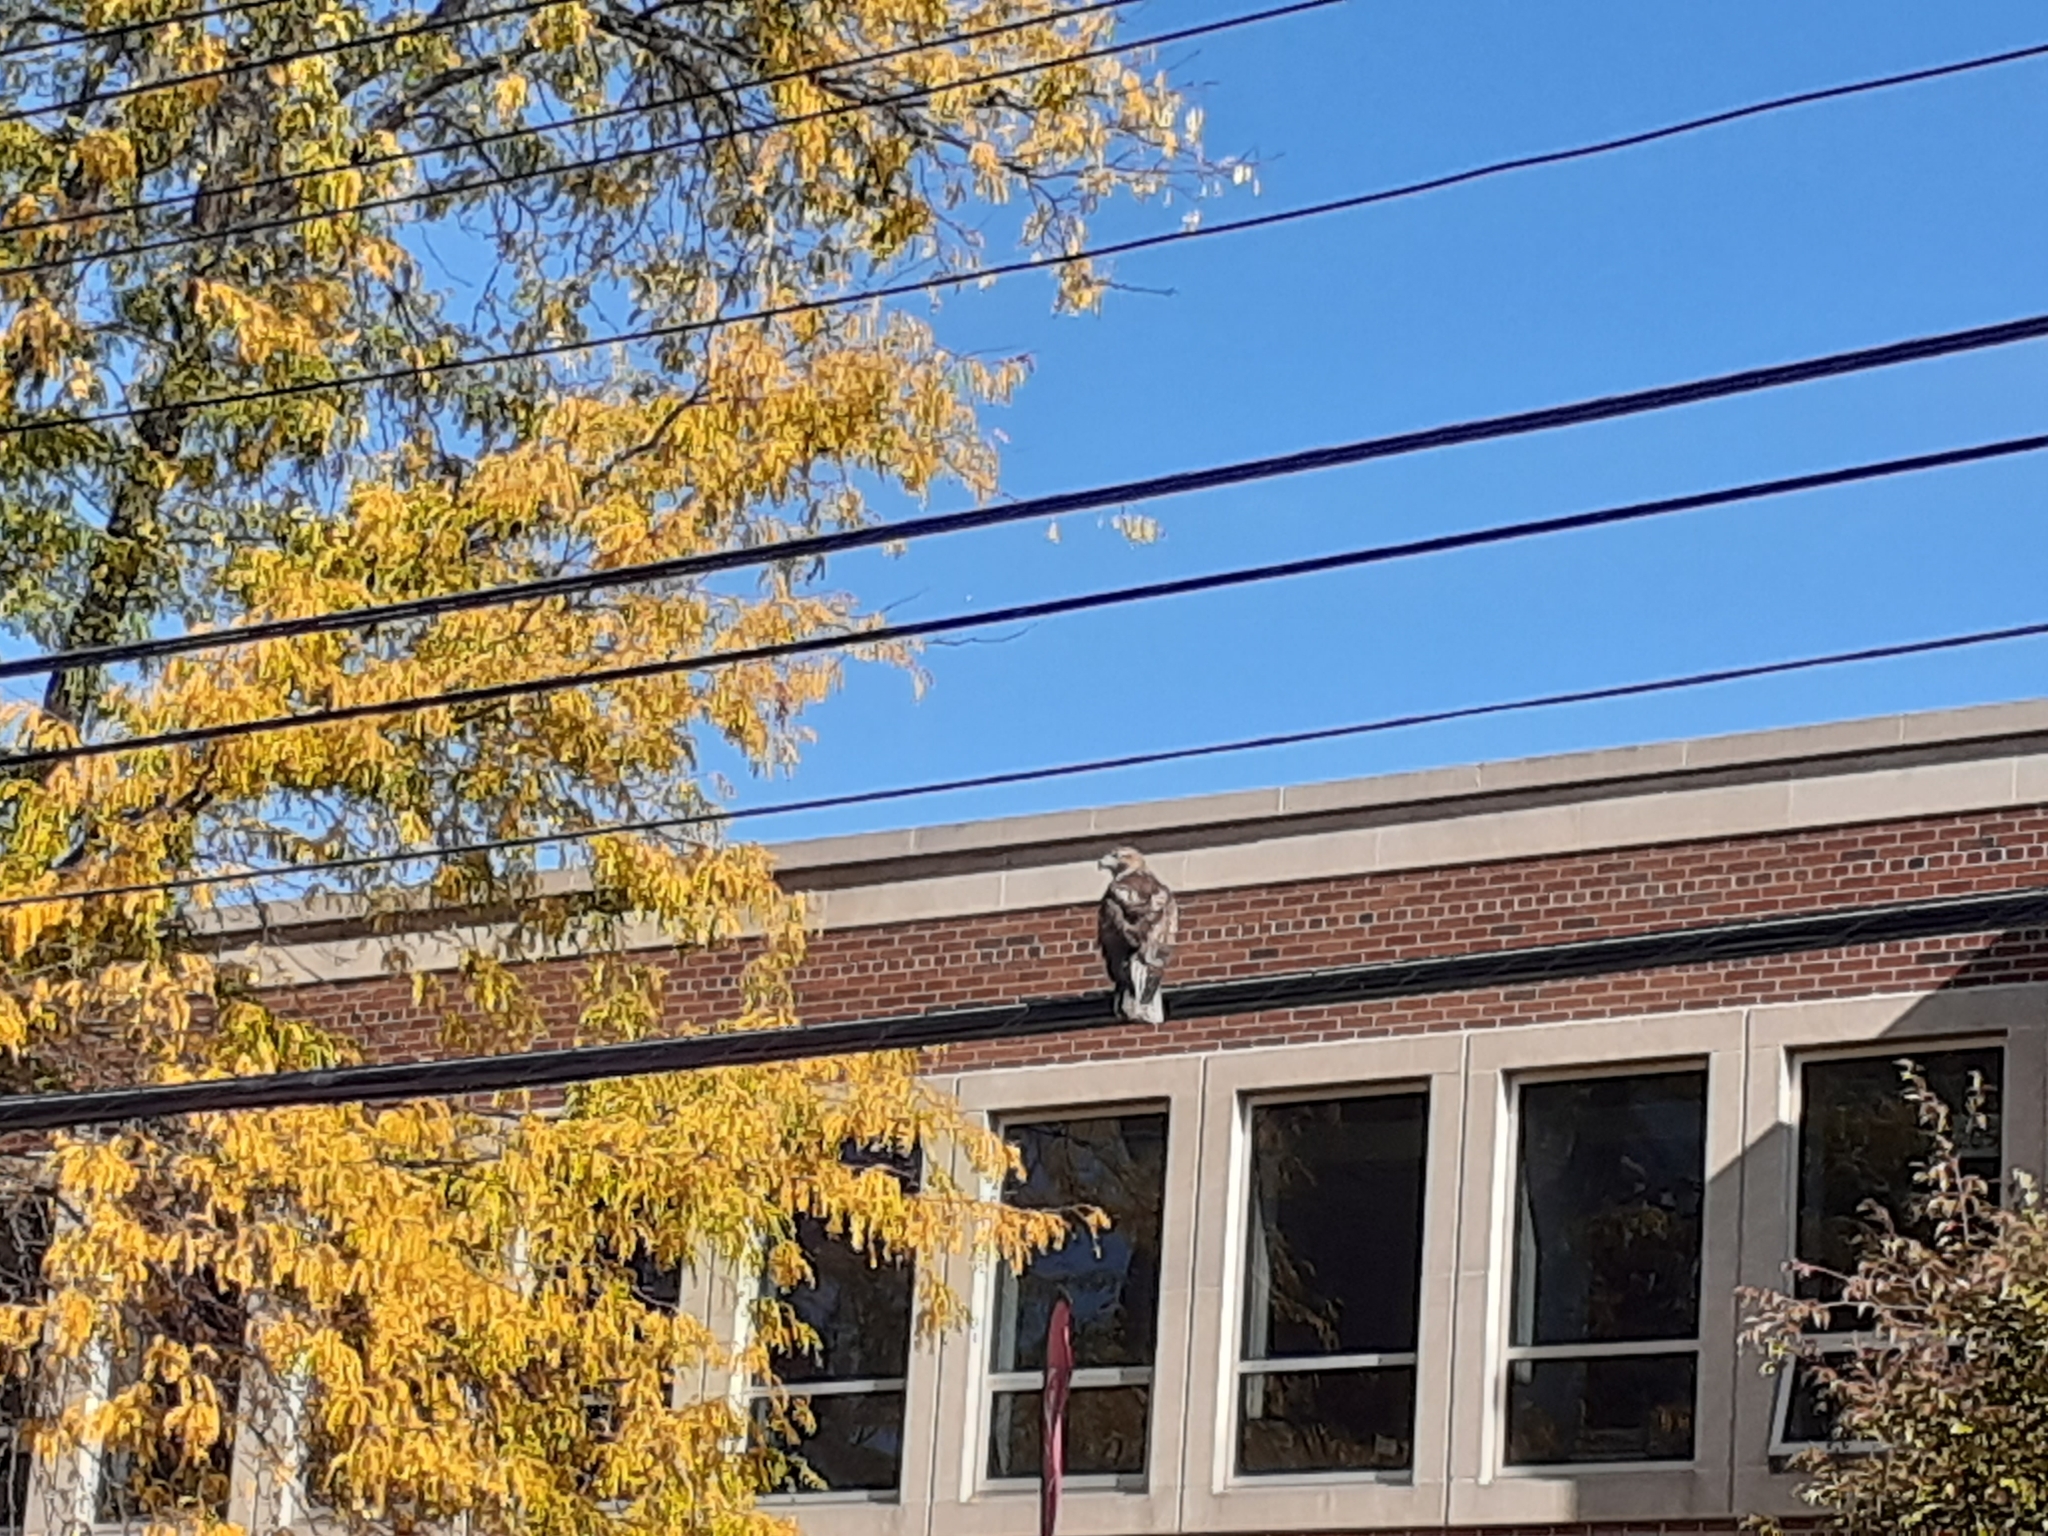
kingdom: Animalia
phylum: Chordata
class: Aves
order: Accipitriformes
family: Accipitridae
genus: Buteo
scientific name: Buteo jamaicensis
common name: Red-tailed hawk
